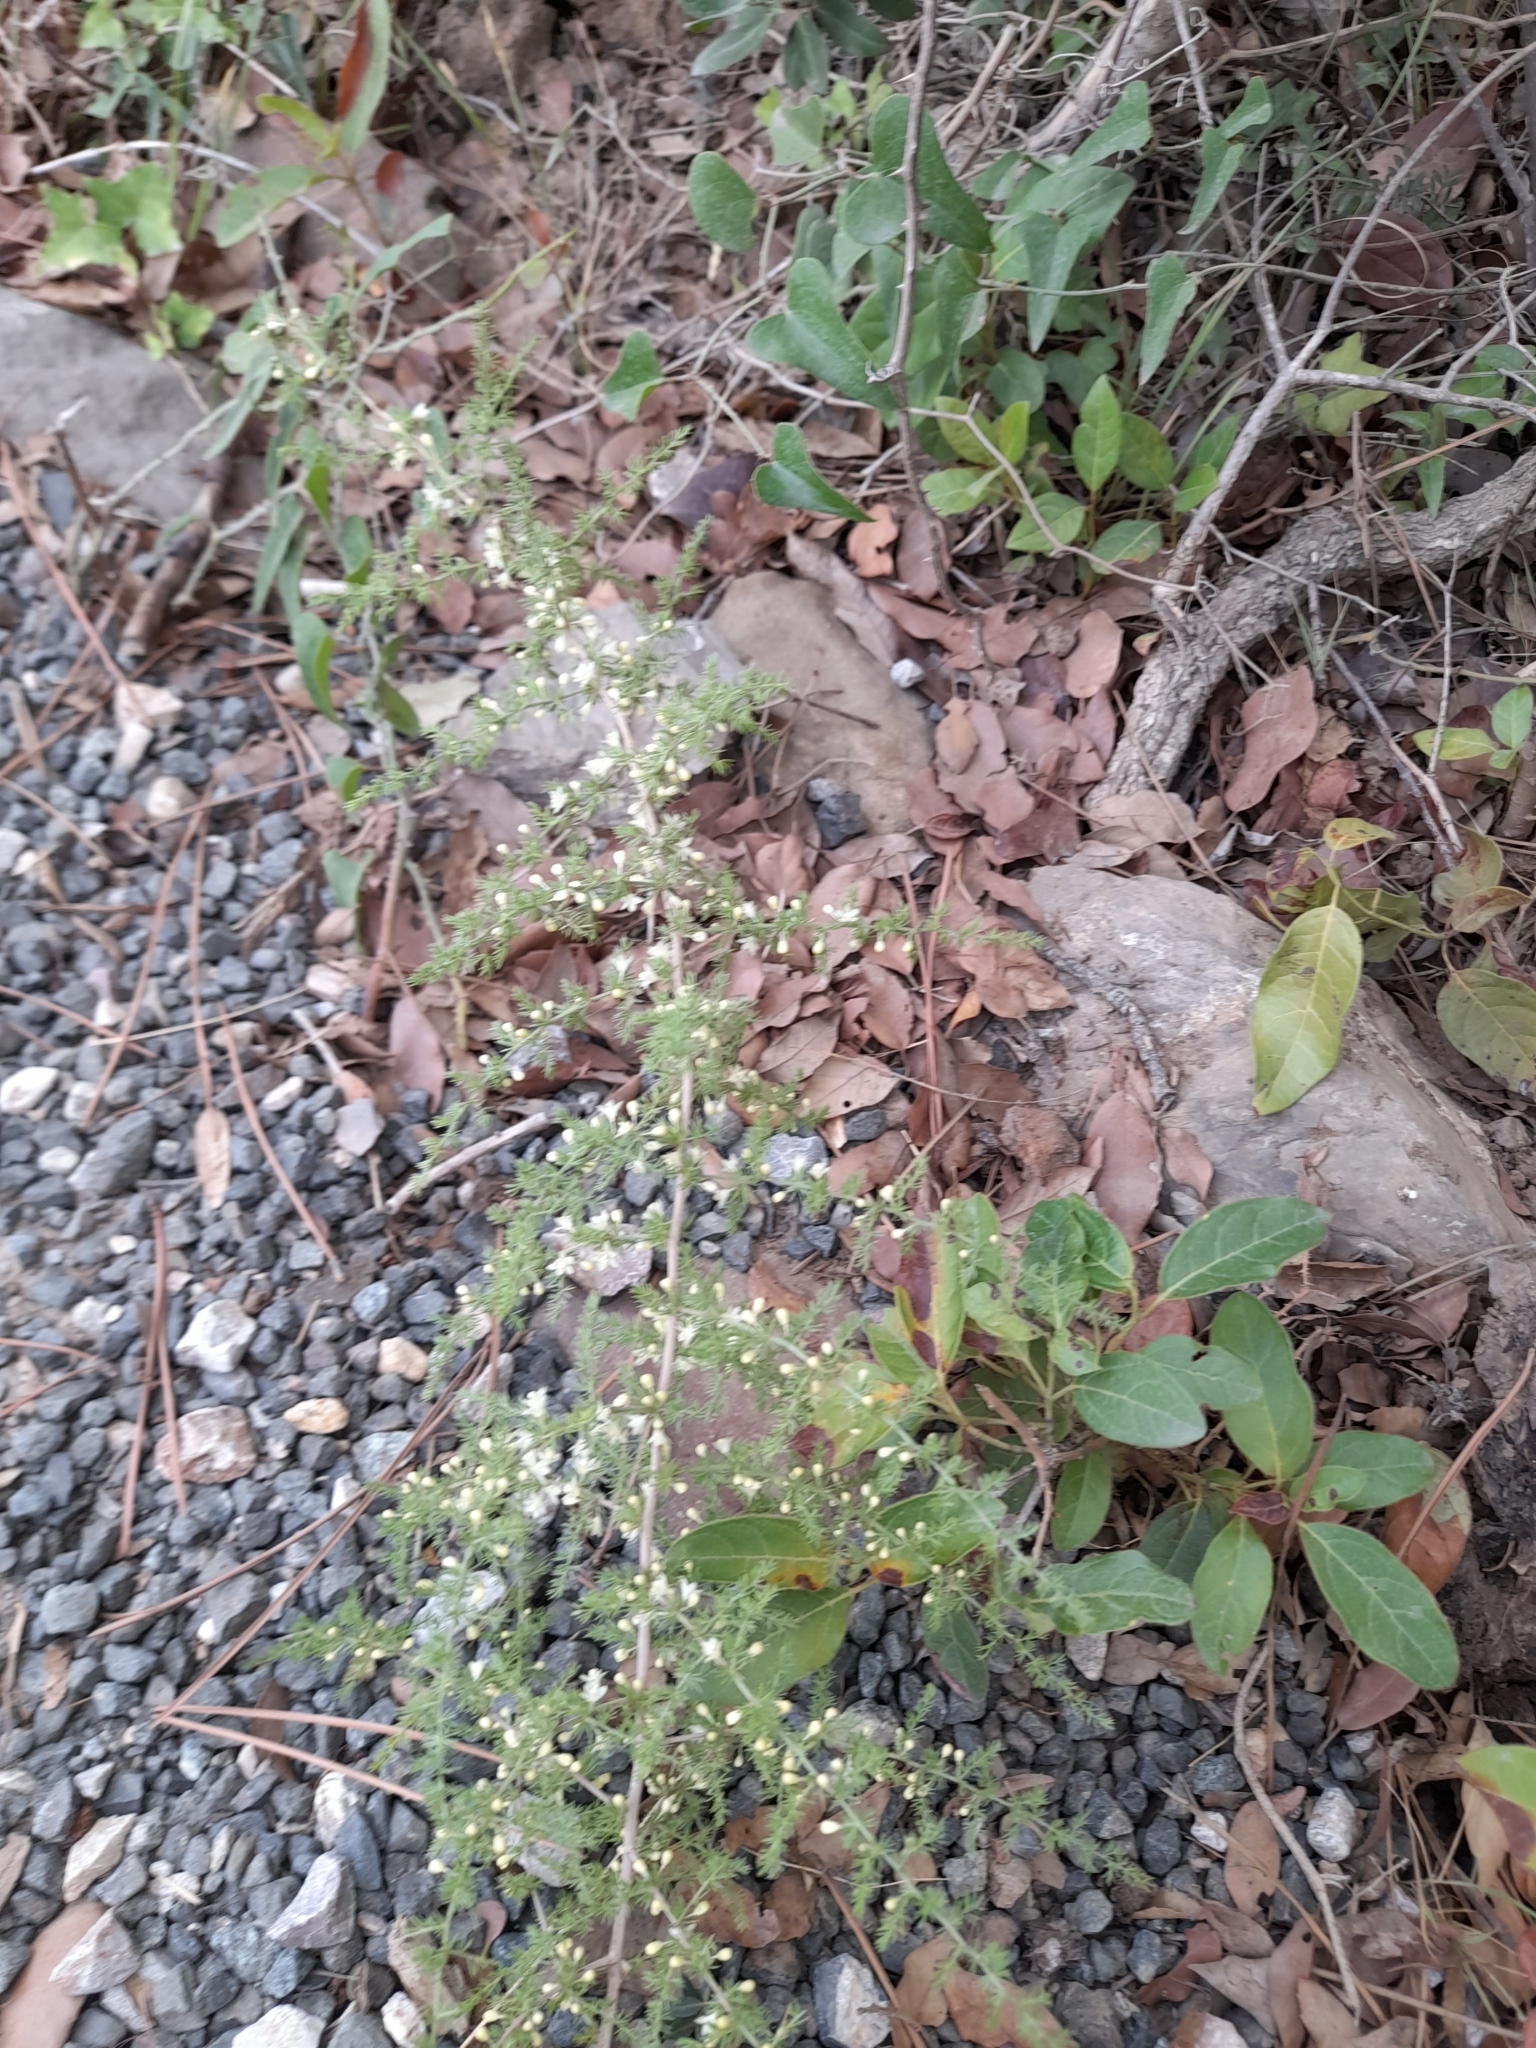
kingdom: Plantae
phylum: Tracheophyta
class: Liliopsida
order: Asparagales
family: Asparagaceae
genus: Asparagus
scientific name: Asparagus acutifolius
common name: Wild asparagus
